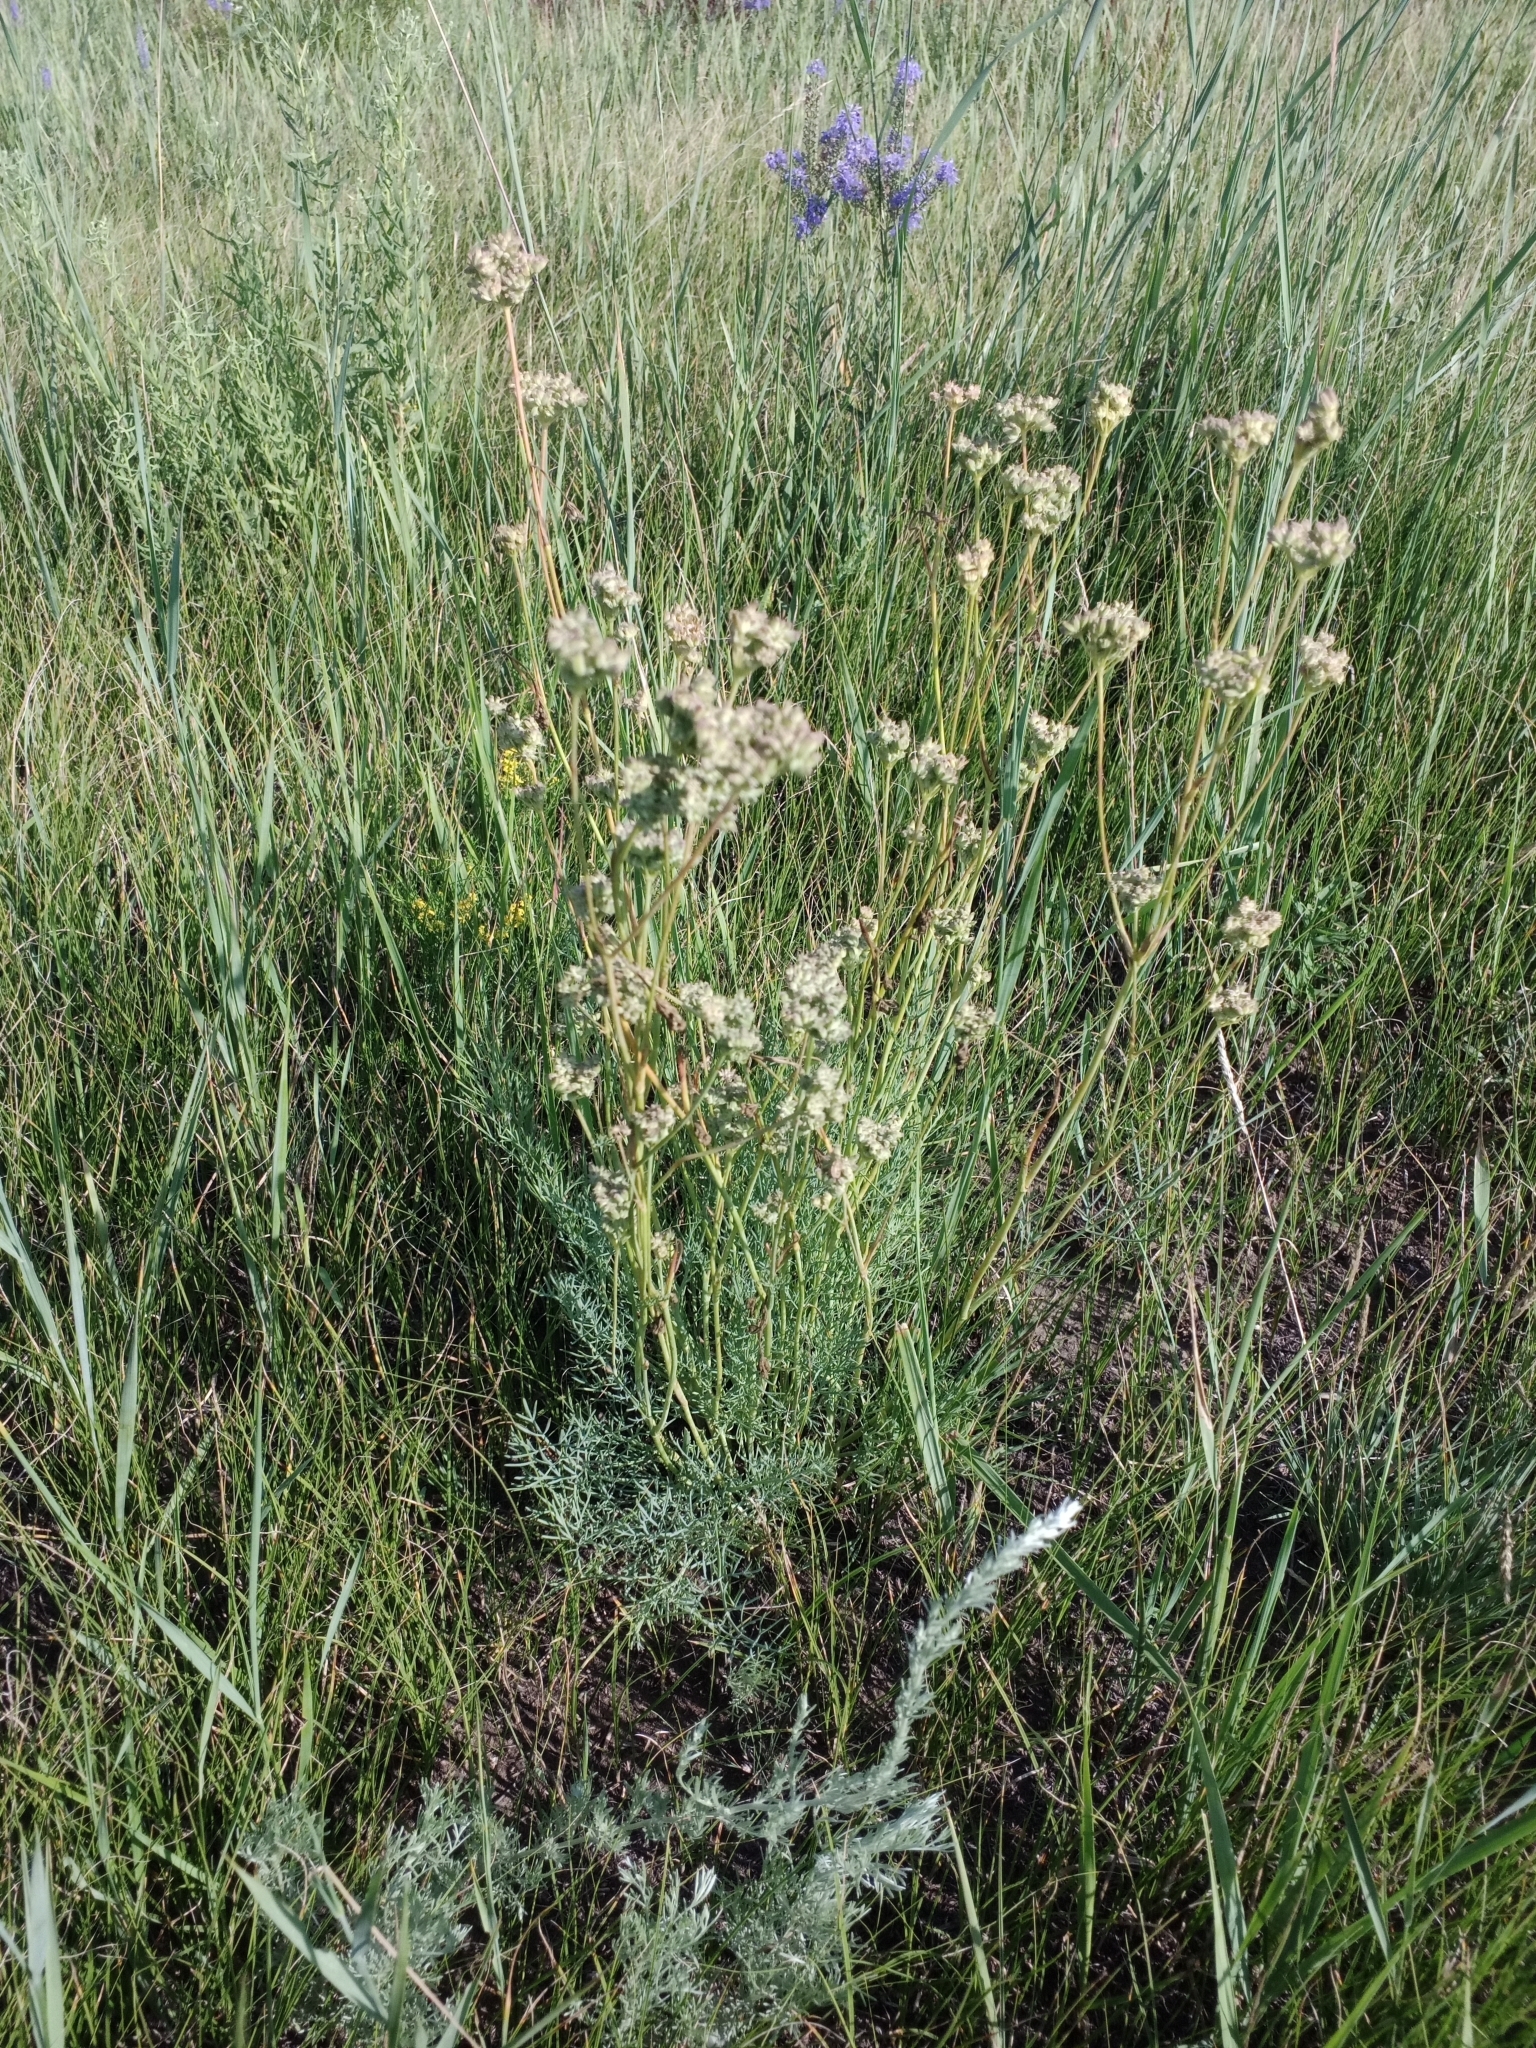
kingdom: Plantae
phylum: Tracheophyta
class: Magnoliopsida
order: Apiales
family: Apiaceae
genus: Seseli
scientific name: Seseli ledebourii
